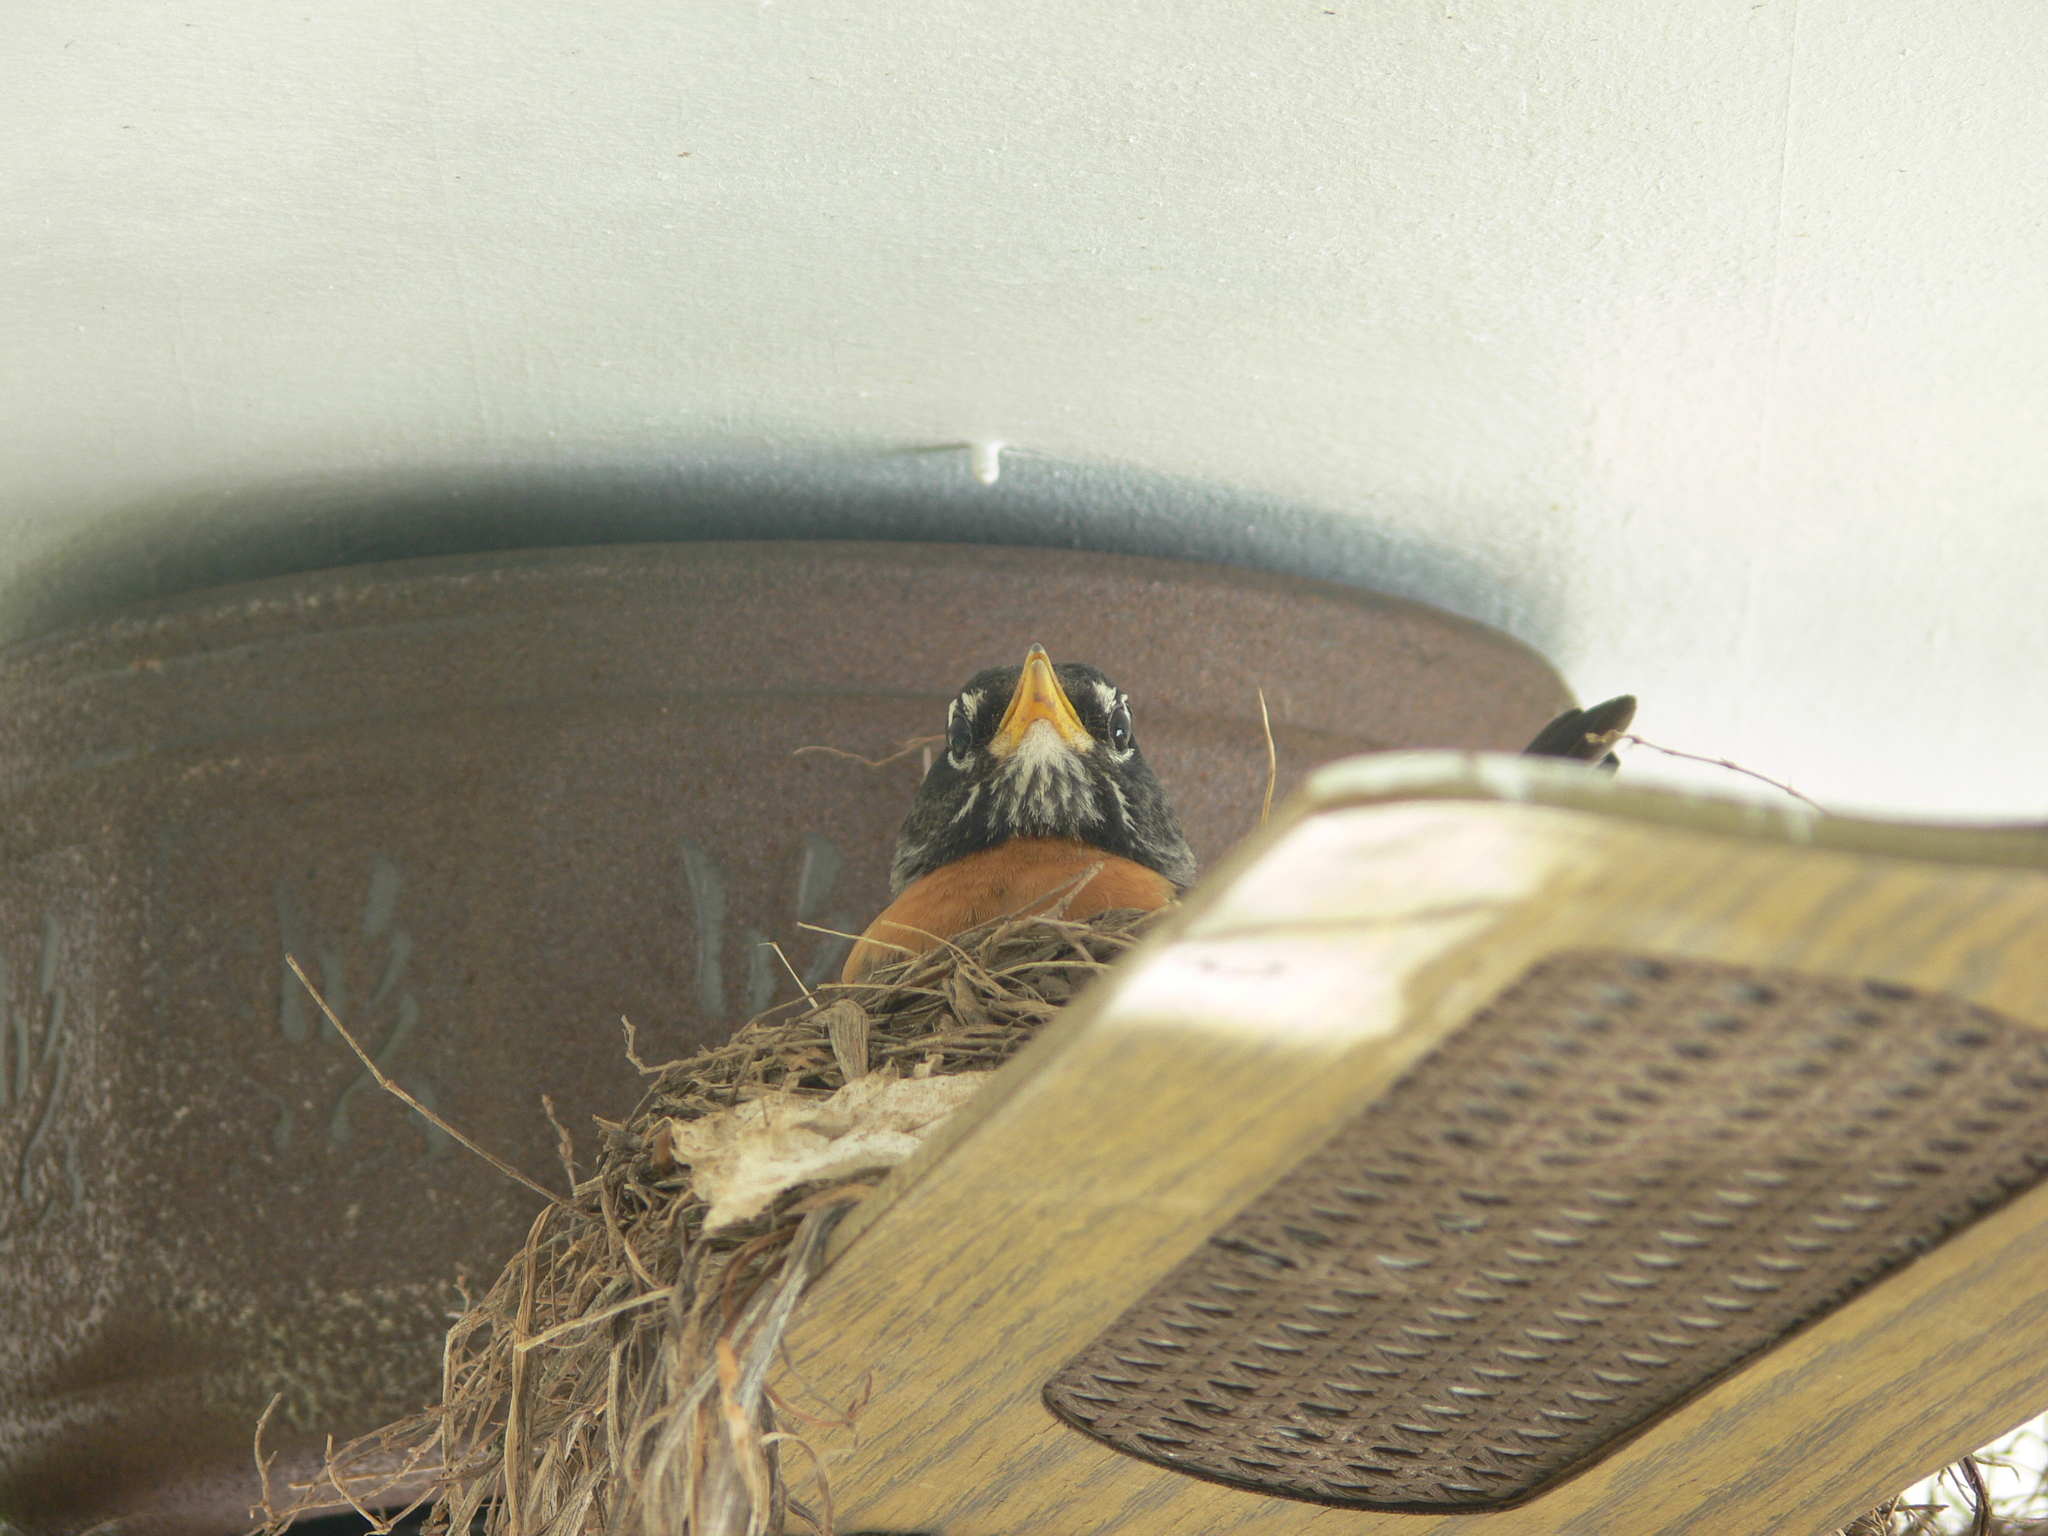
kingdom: Animalia
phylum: Chordata
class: Aves
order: Passeriformes
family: Turdidae
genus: Turdus
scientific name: Turdus migratorius
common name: American robin
